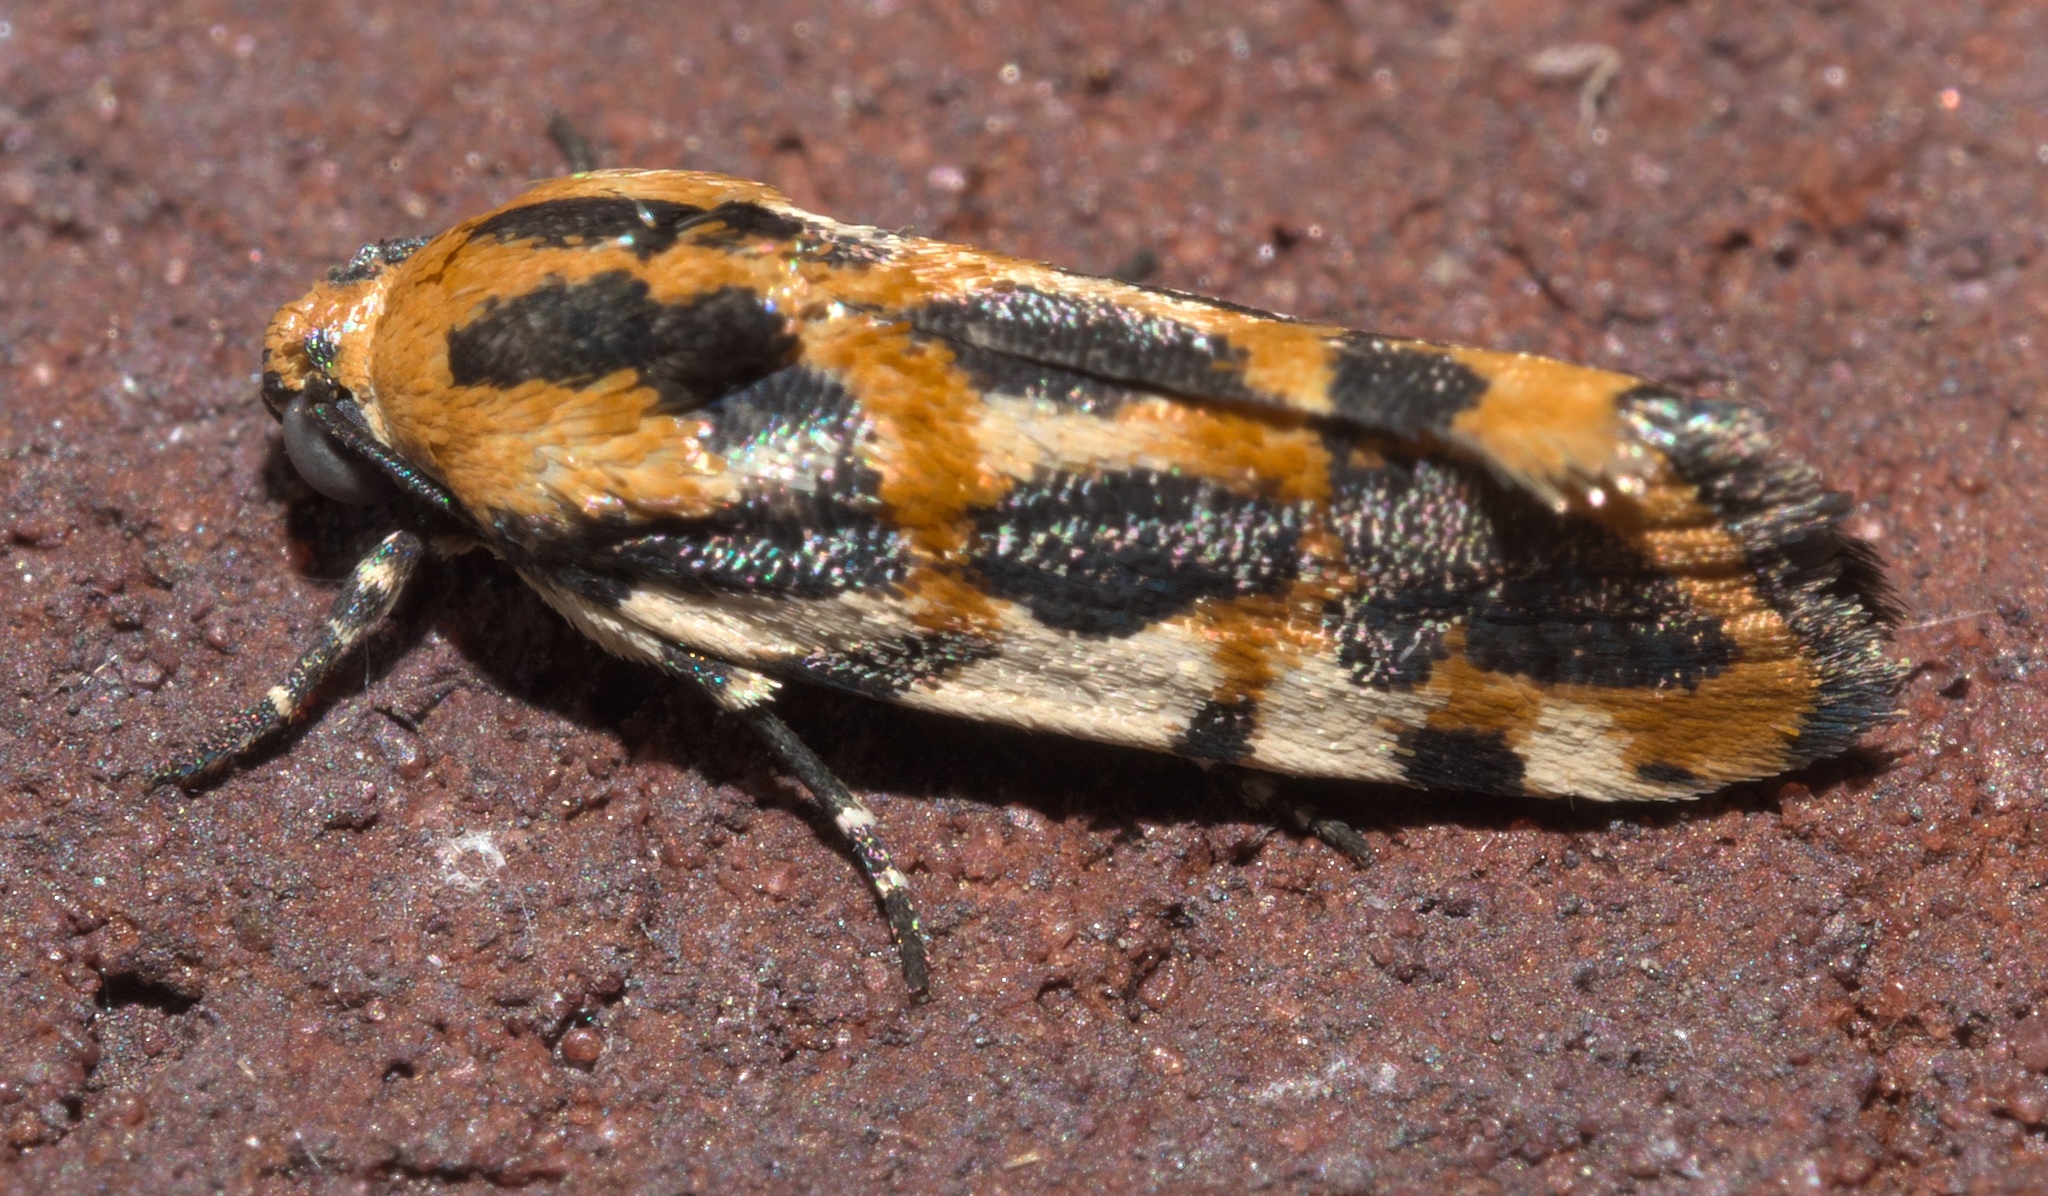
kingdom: Animalia
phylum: Arthropoda
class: Insecta
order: Lepidoptera
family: Noctuidae
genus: Acontia
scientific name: Acontia leo
